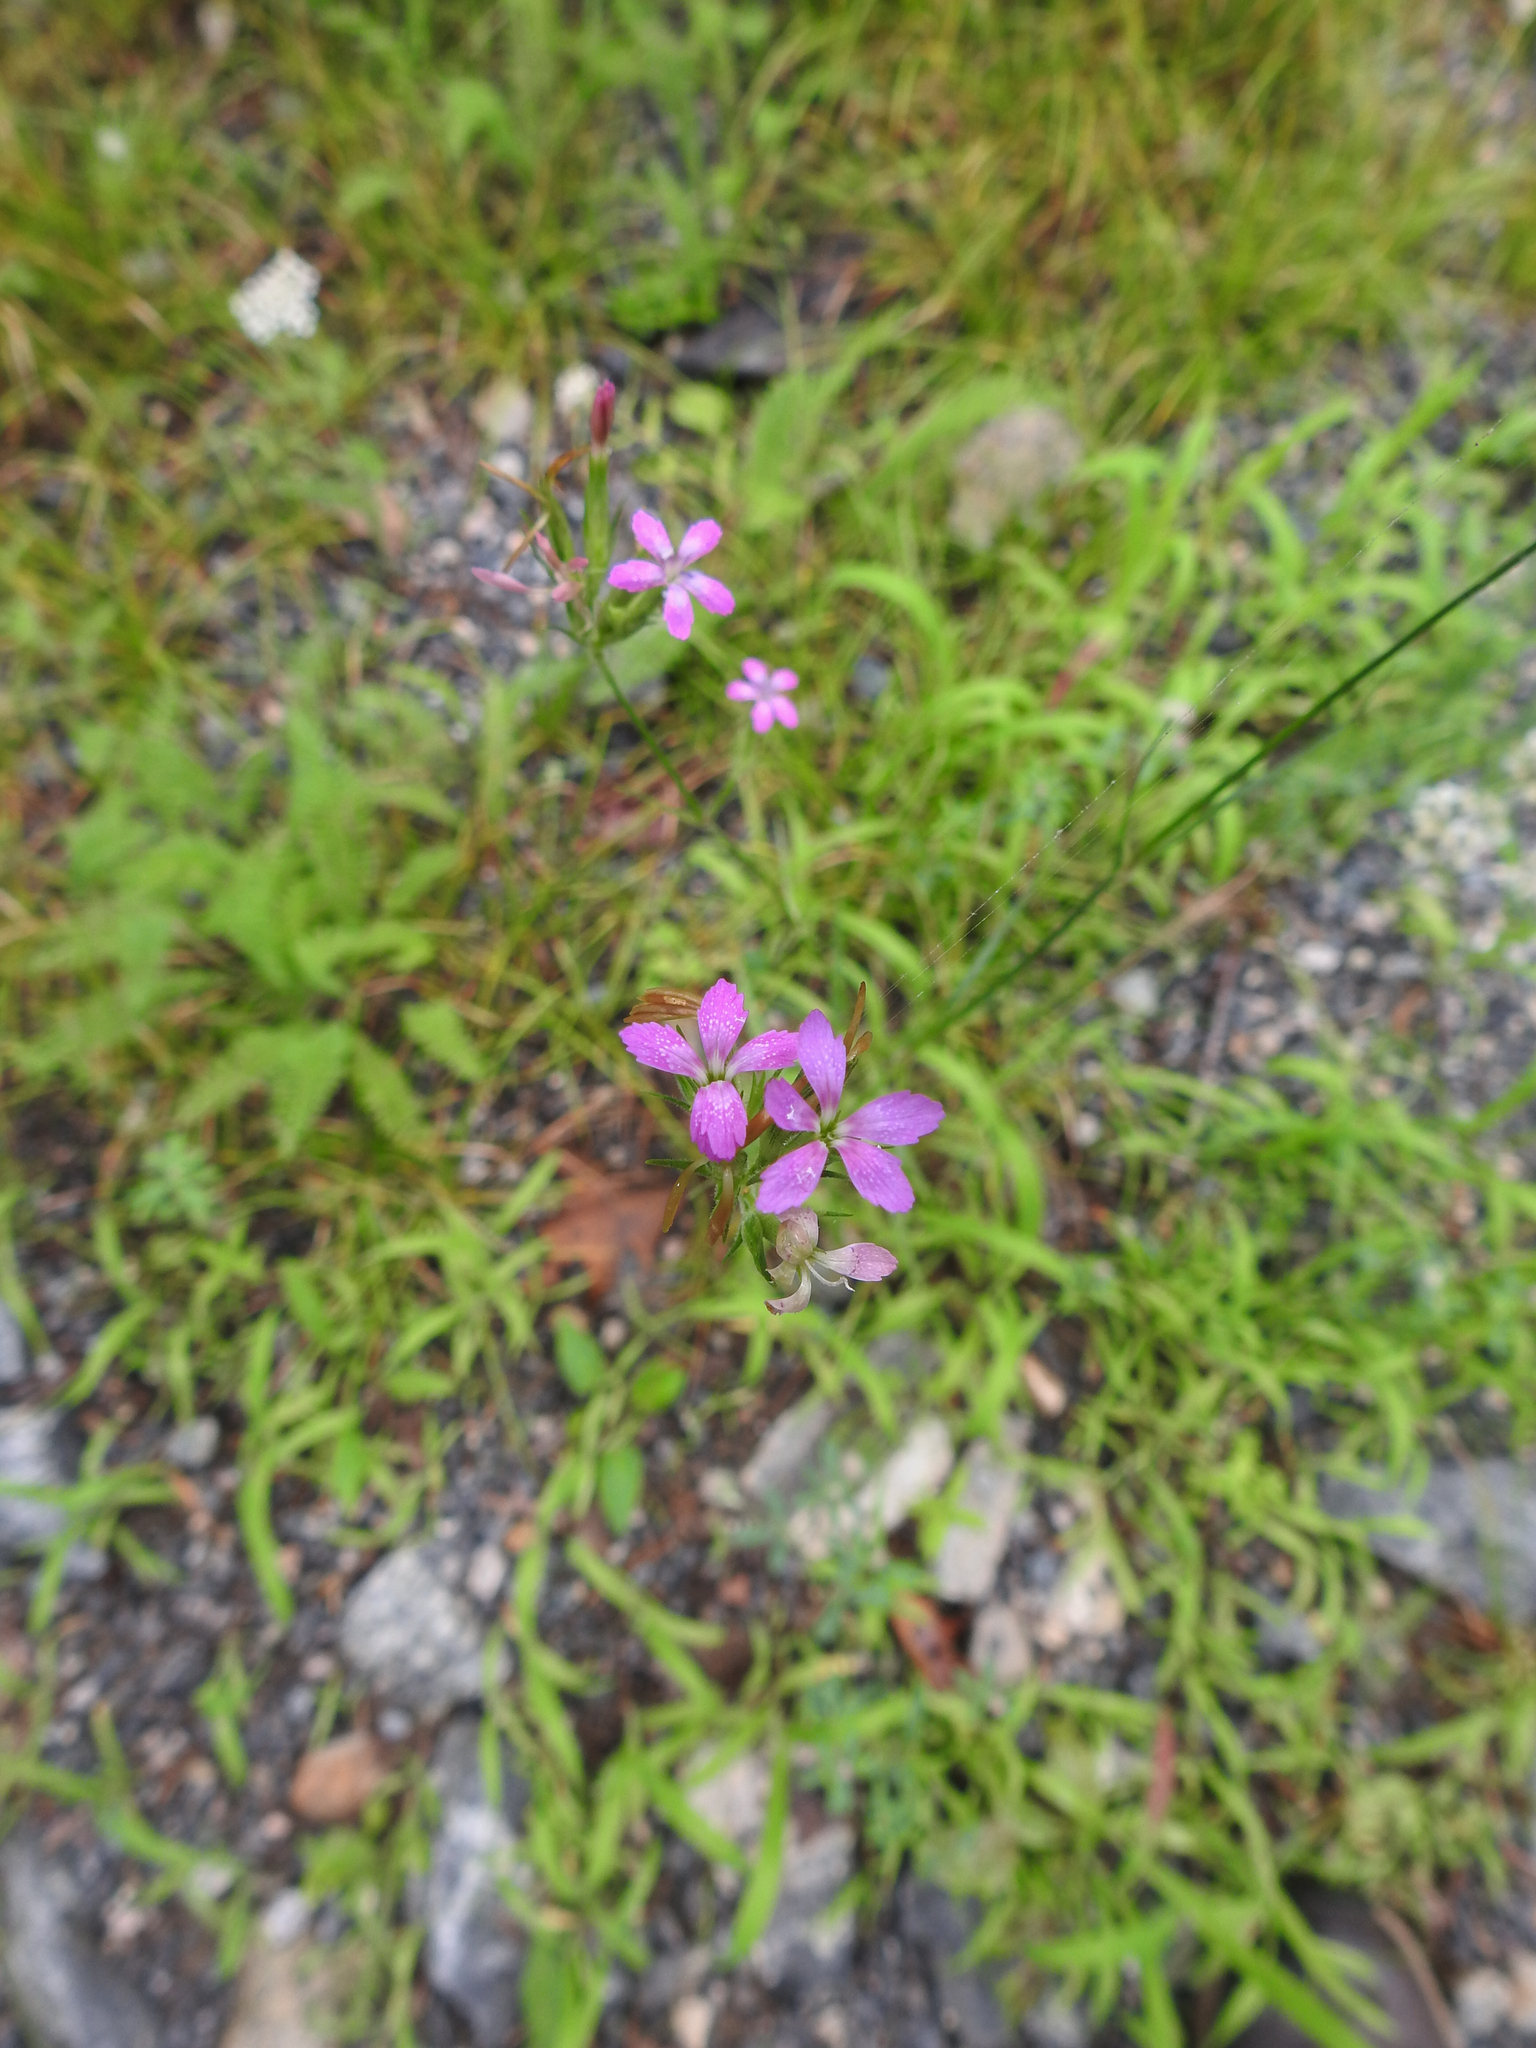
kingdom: Plantae
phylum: Tracheophyta
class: Magnoliopsida
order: Caryophyllales
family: Caryophyllaceae
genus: Dianthus
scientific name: Dianthus armeria
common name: Deptford pink
